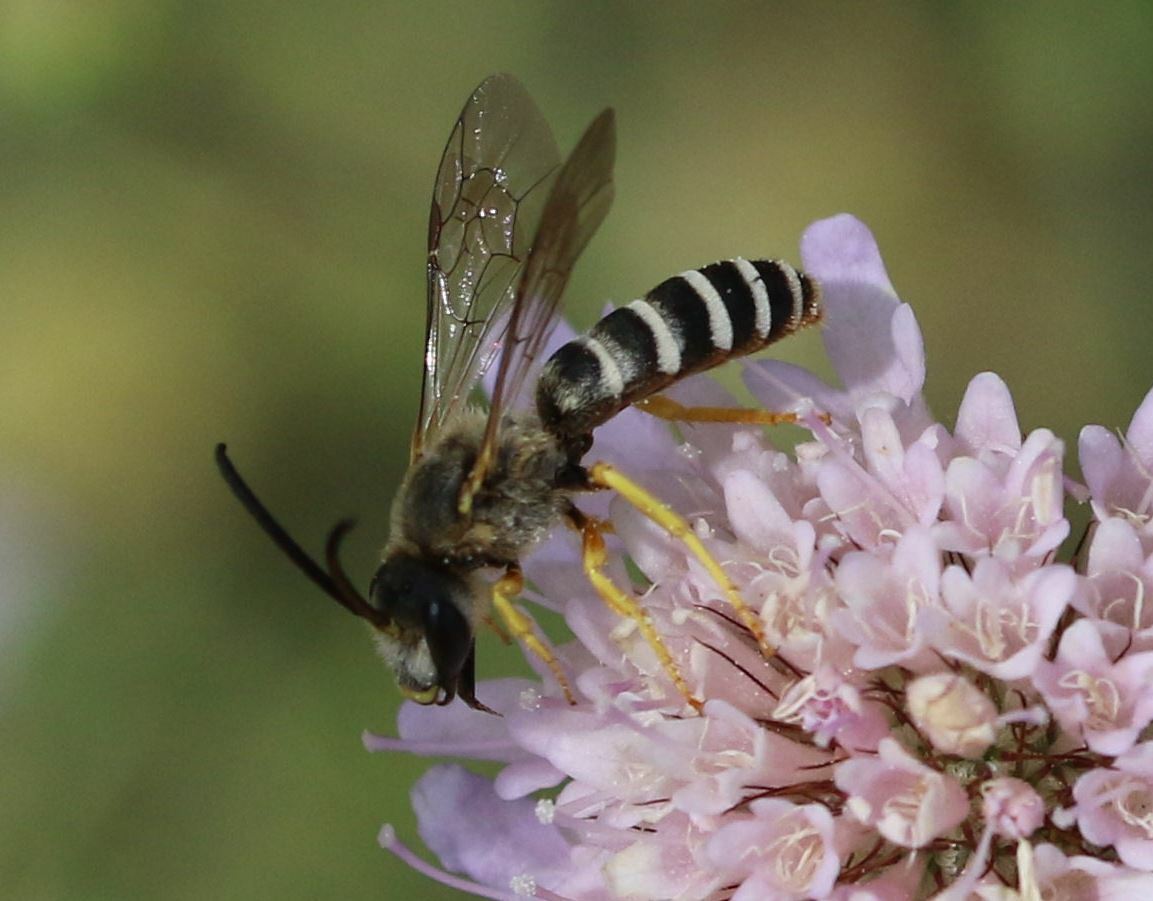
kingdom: Animalia
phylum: Arthropoda
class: Insecta
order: Hymenoptera
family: Halictidae
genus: Halictus
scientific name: Halictus scabiosae
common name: Great banded furrow bee
